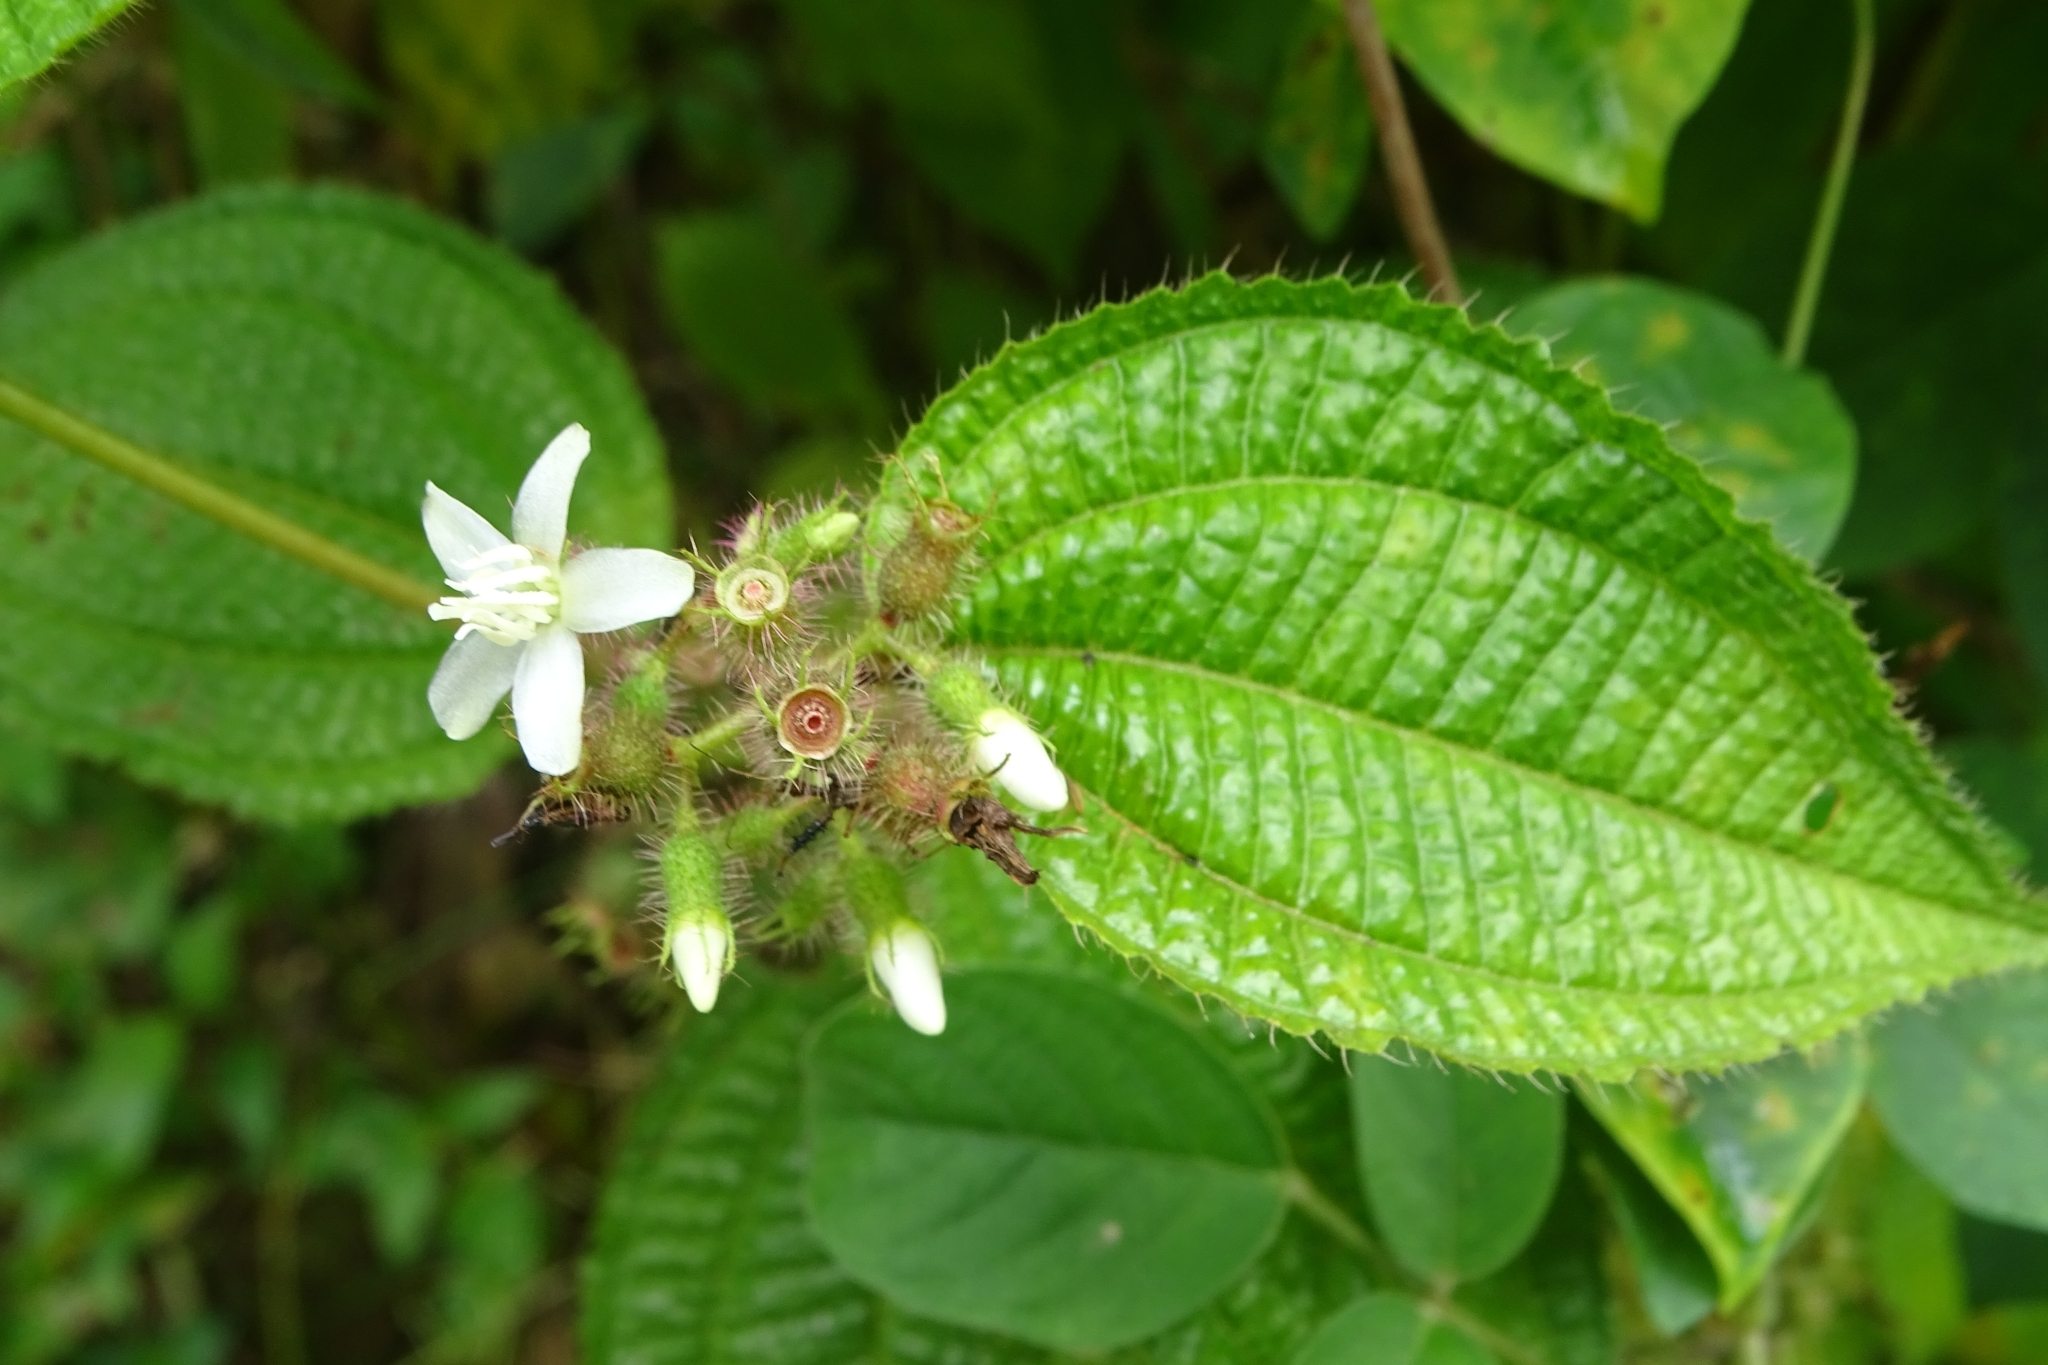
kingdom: Plantae
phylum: Tracheophyta
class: Magnoliopsida
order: Myrtales
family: Melastomataceae
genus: Miconia
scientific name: Miconia crenata
